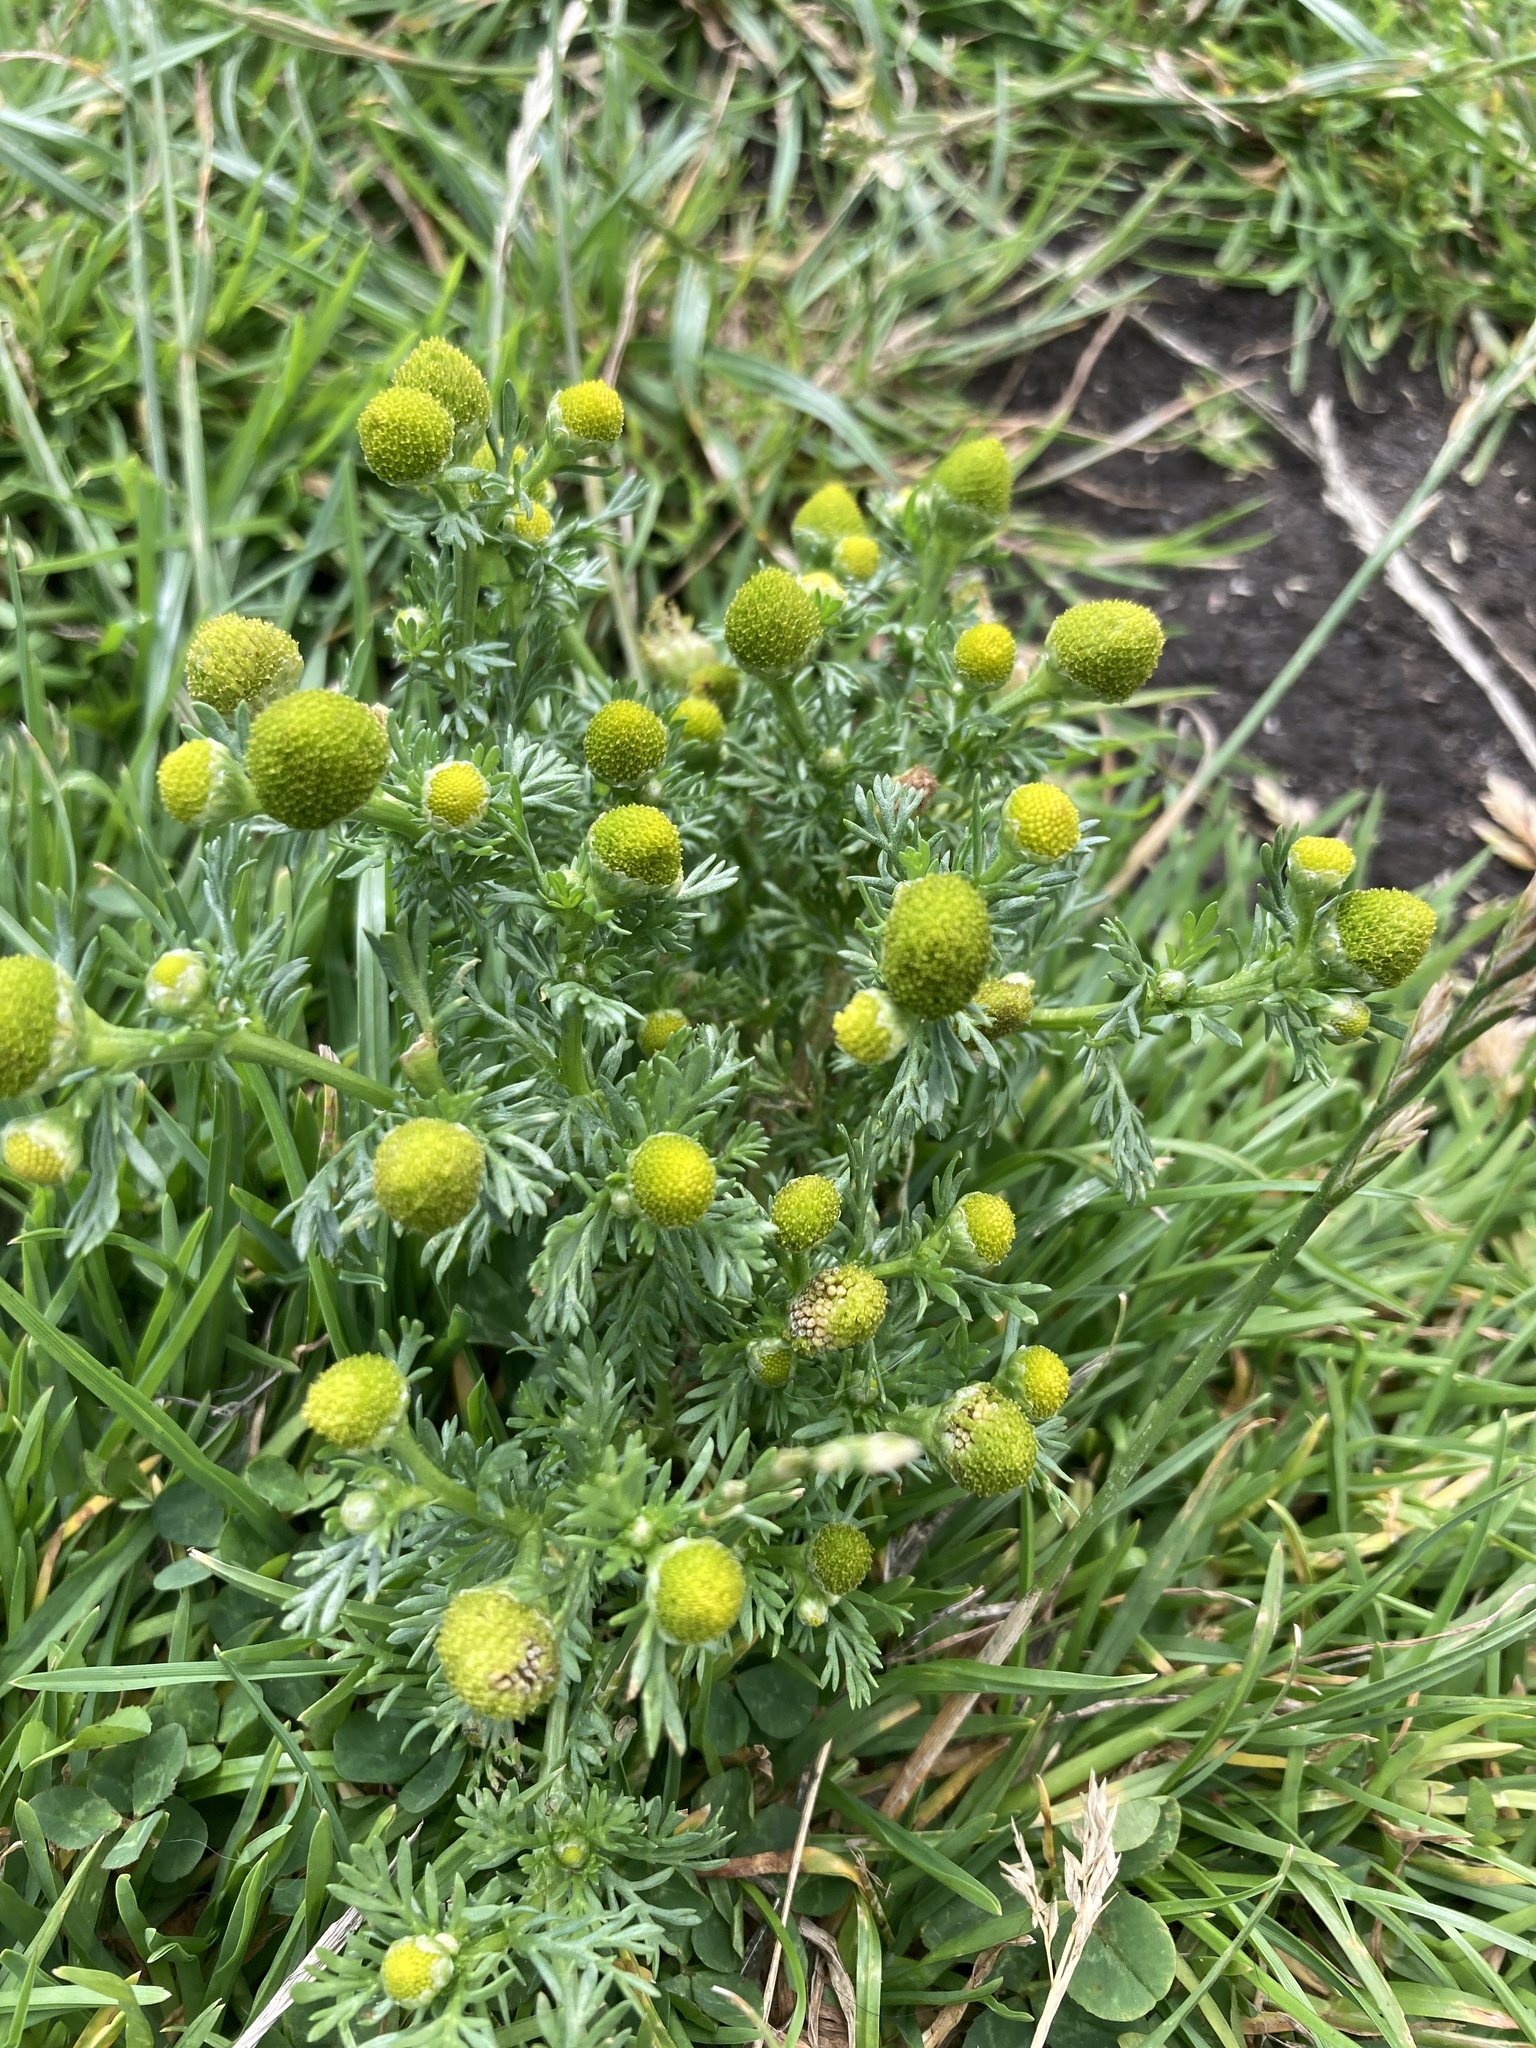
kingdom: Plantae
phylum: Tracheophyta
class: Magnoliopsida
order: Asterales
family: Asteraceae
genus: Matricaria
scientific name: Matricaria discoidea
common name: Disc mayweed
